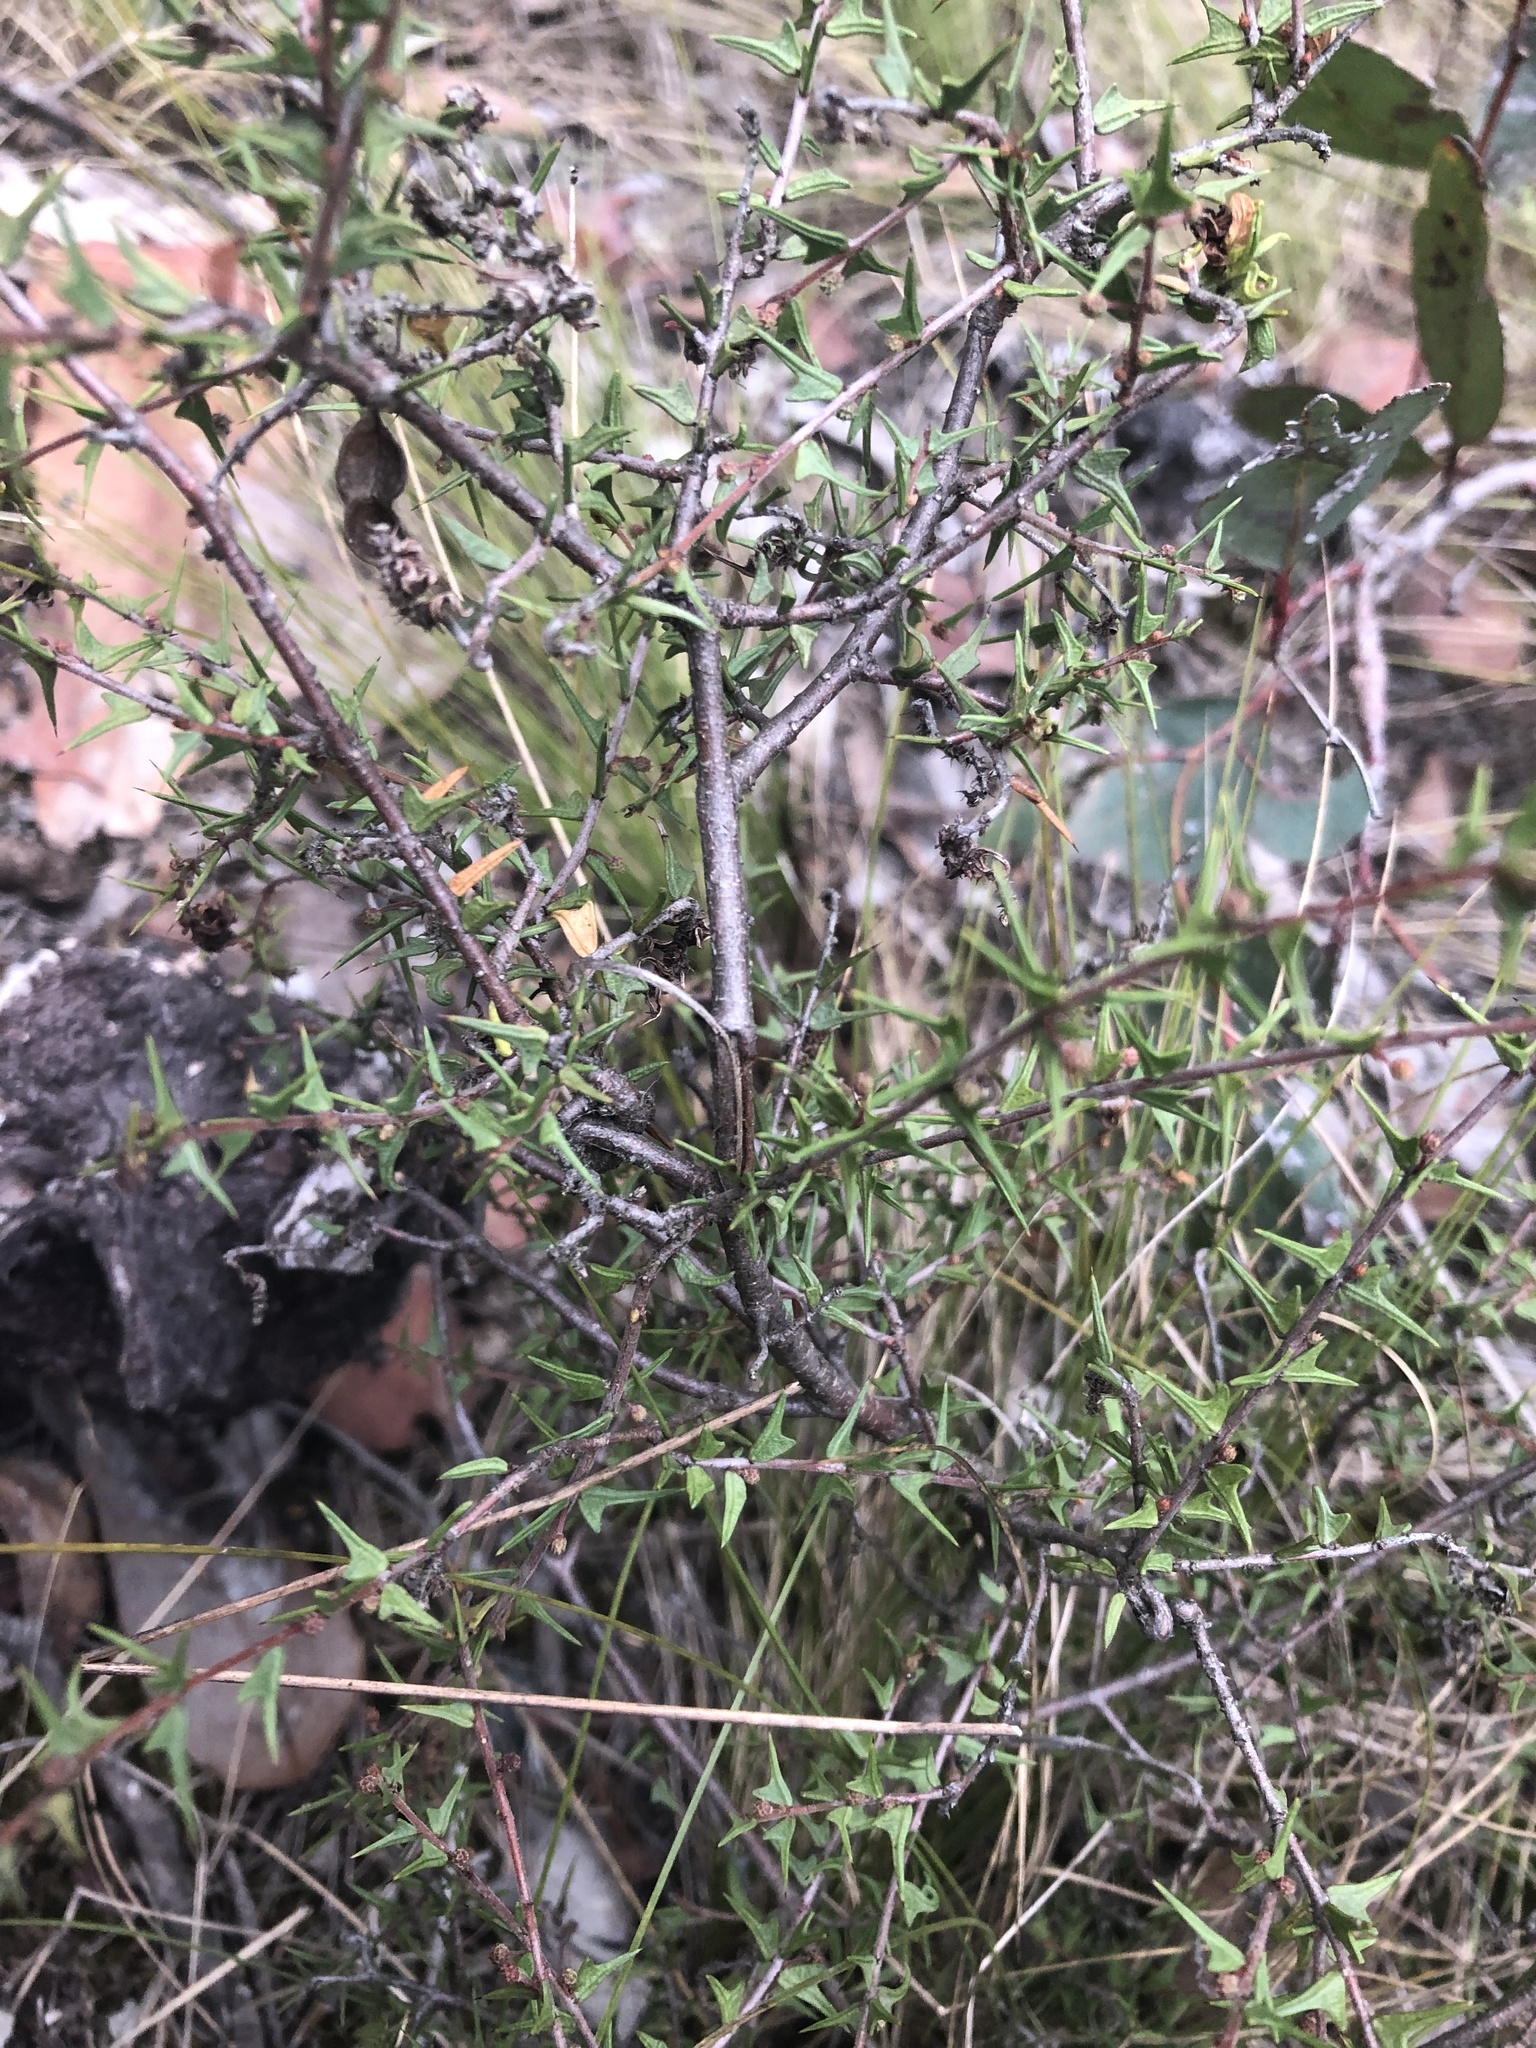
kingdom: Plantae
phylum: Tracheophyta
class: Magnoliopsida
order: Fabales
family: Fabaceae
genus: Acacia
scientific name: Acacia gunnii
